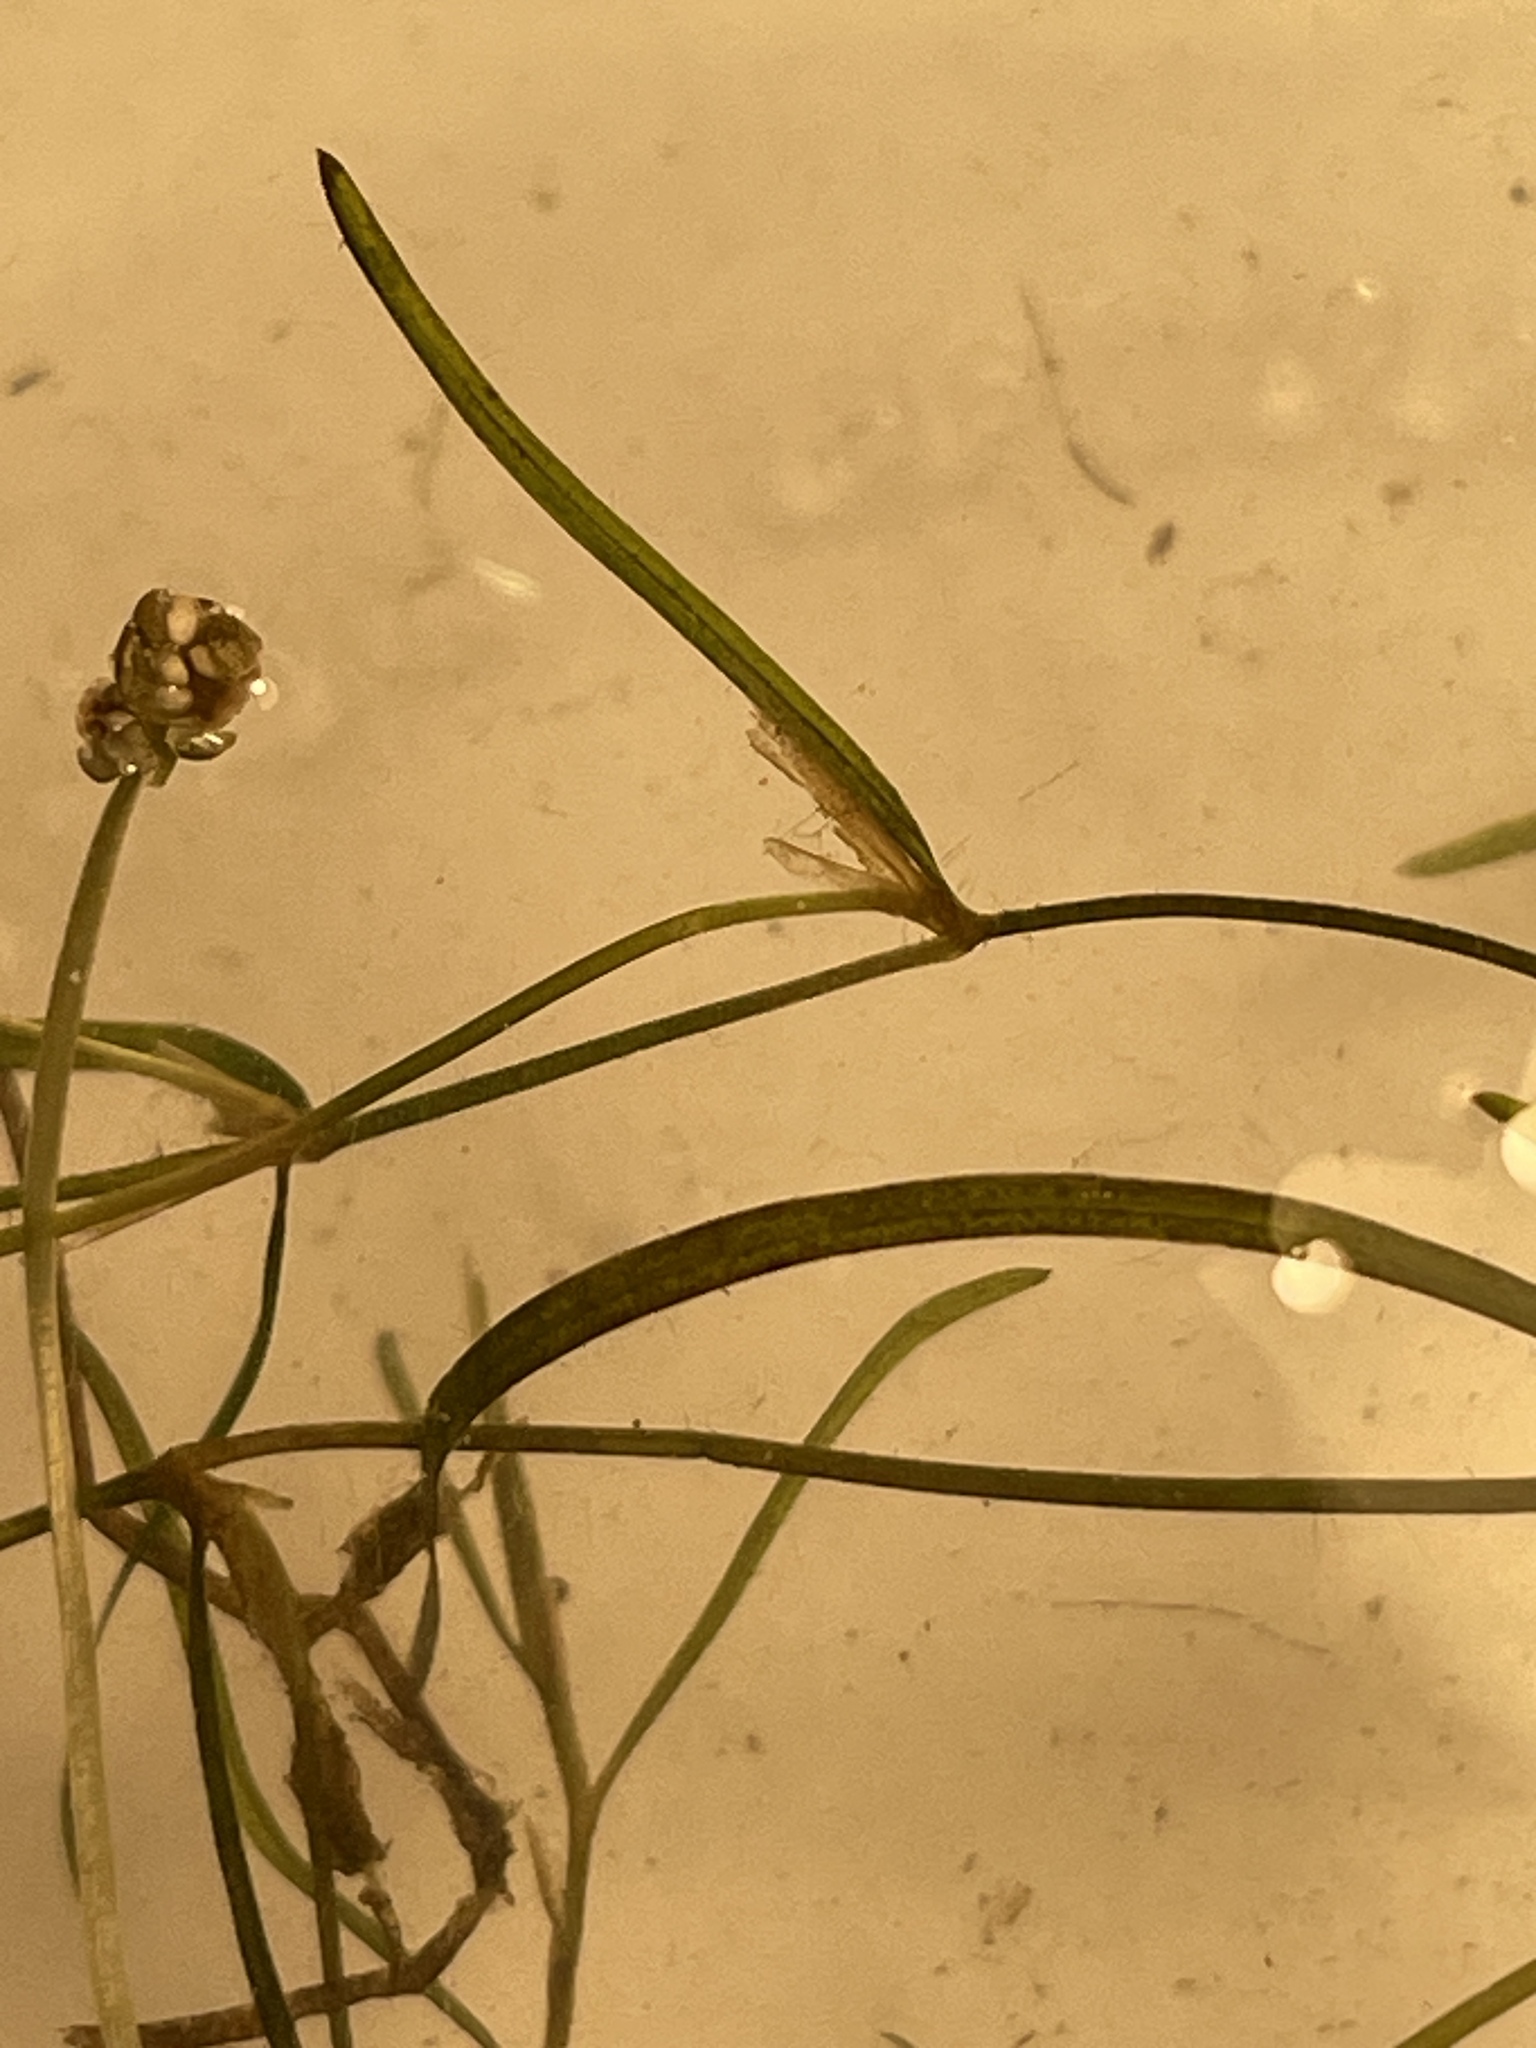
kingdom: Plantae
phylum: Tracheophyta
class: Liliopsida
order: Alismatales
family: Potamogetonaceae
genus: Potamogeton
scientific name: Potamogeton pusillus
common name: Lesser pondweed
